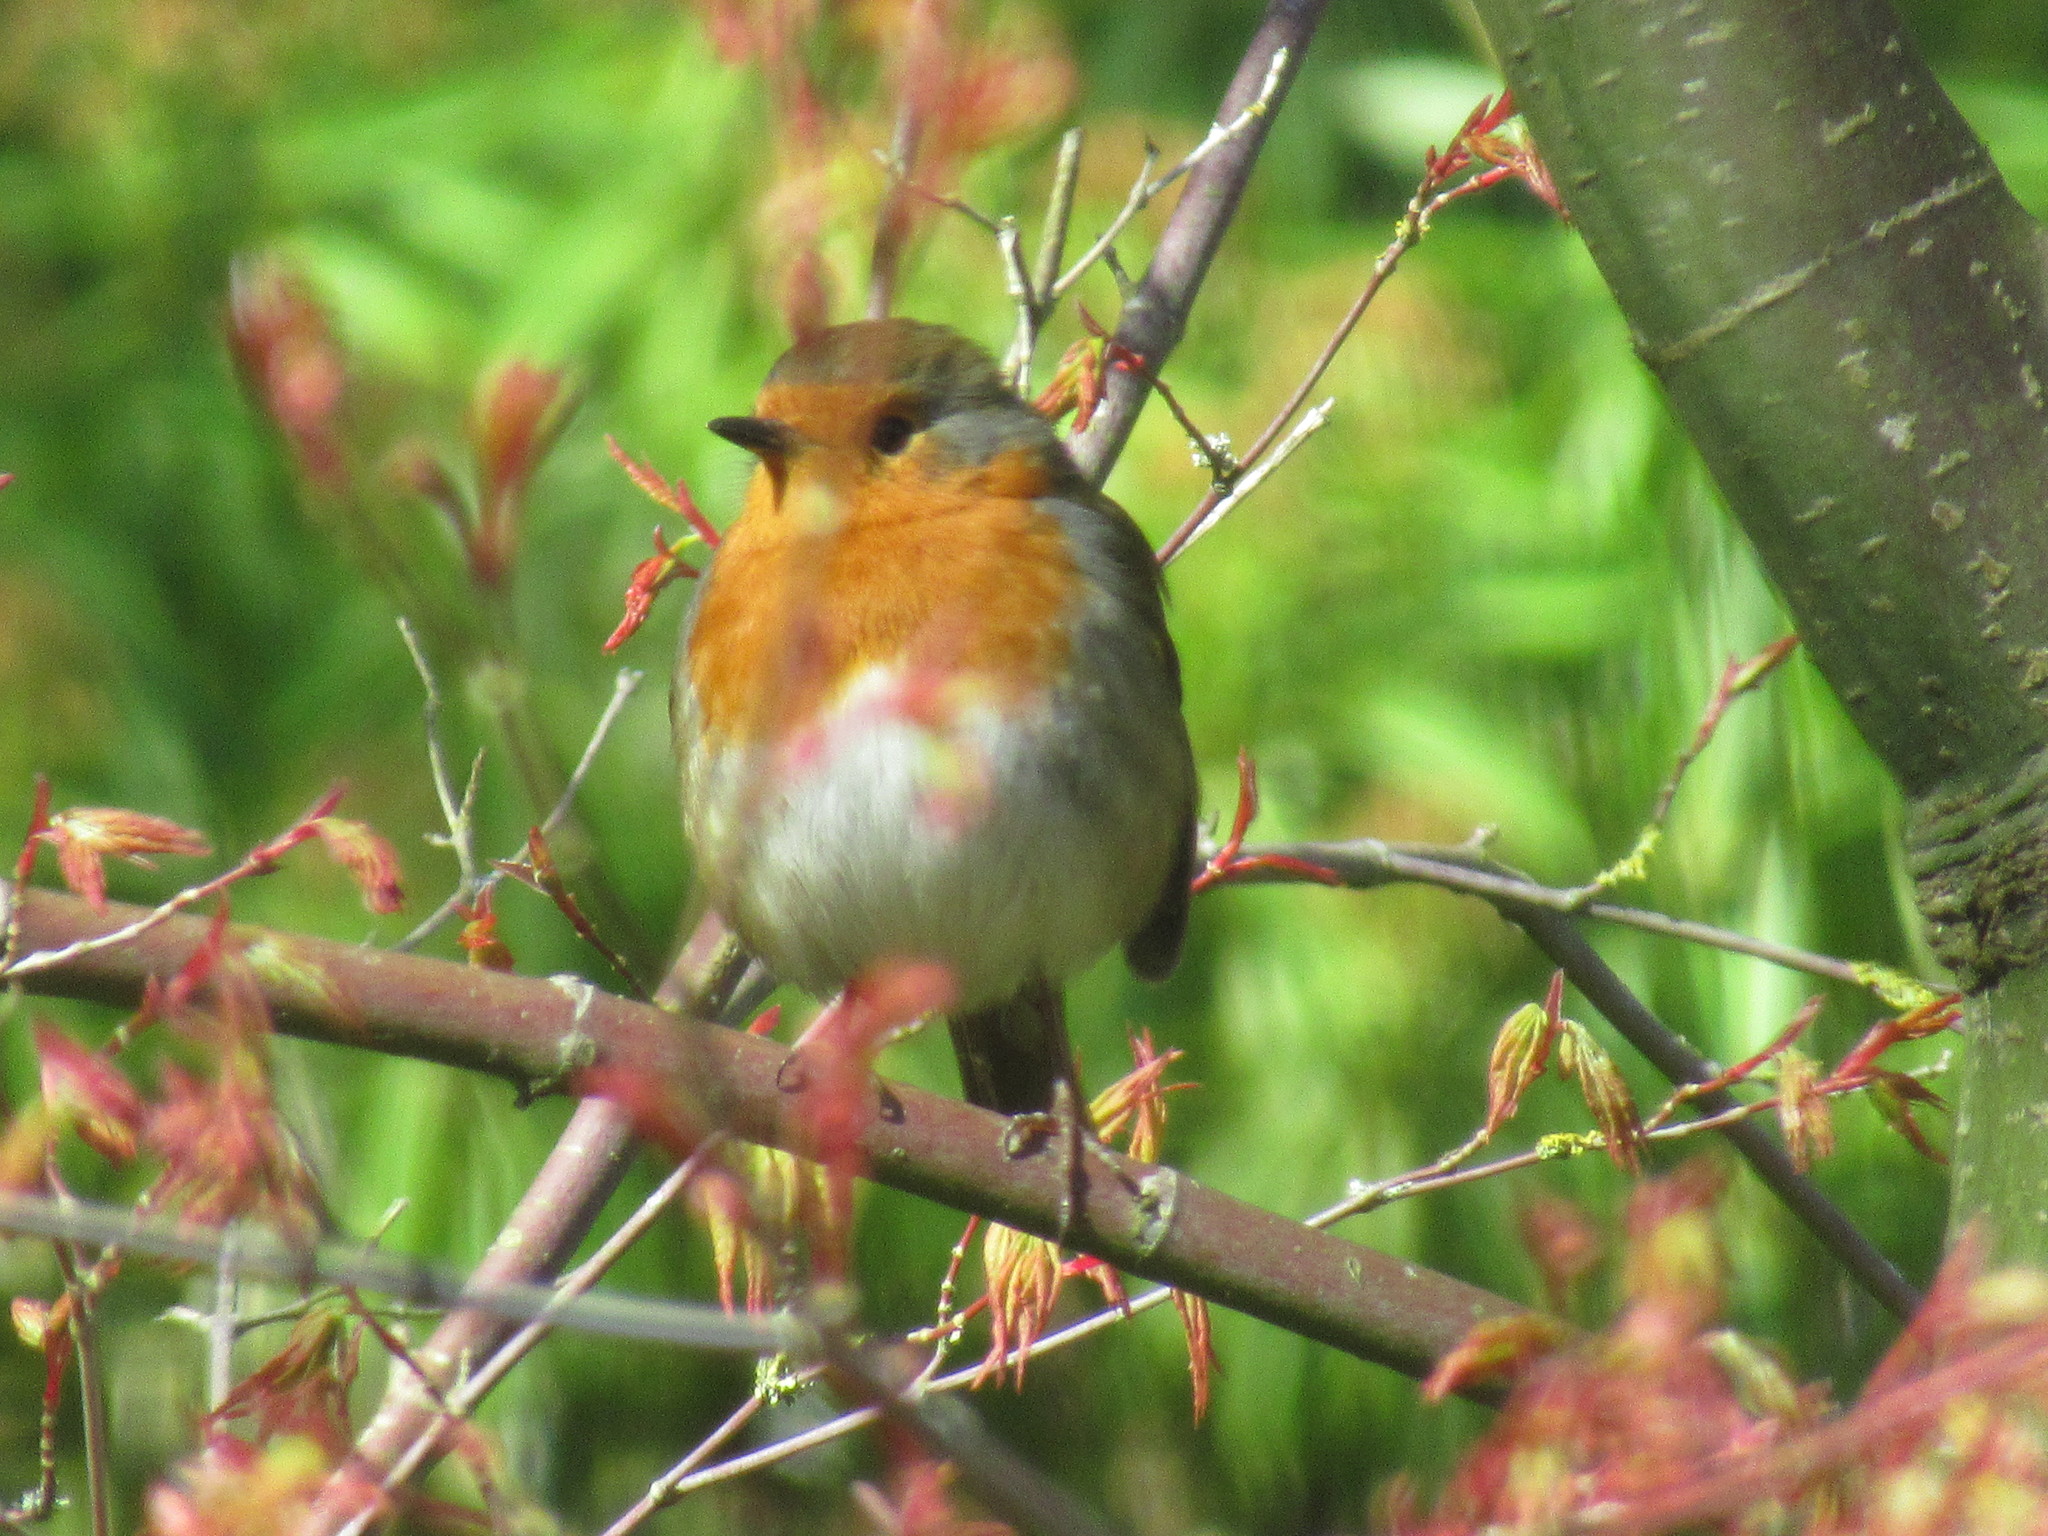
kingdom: Animalia
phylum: Chordata
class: Aves
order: Passeriformes
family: Muscicapidae
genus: Erithacus
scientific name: Erithacus rubecula
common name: European robin
